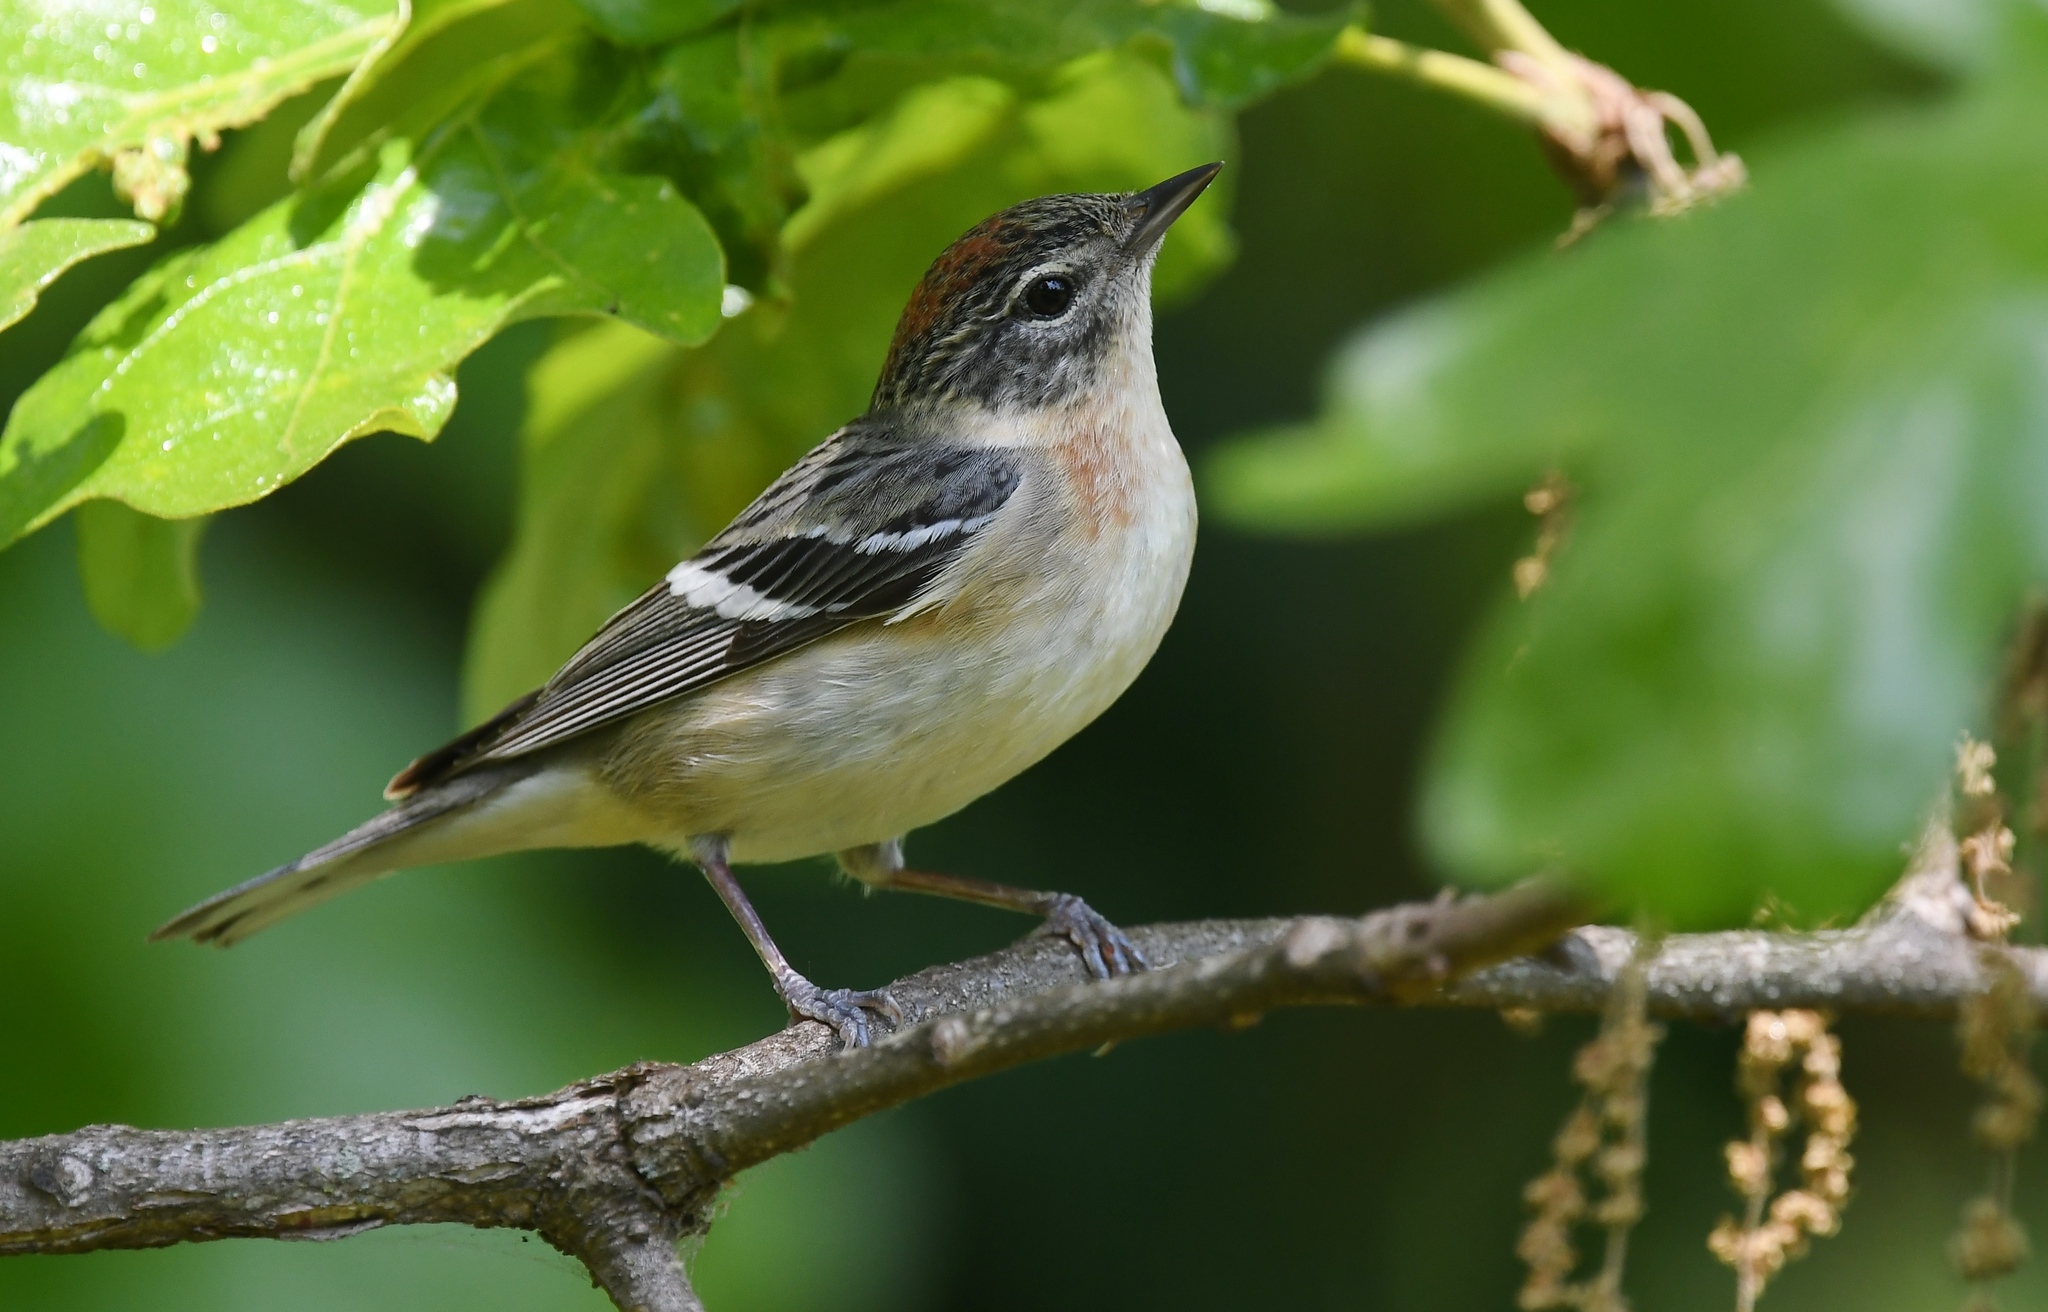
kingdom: Animalia
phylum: Chordata
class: Aves
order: Passeriformes
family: Parulidae
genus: Setophaga
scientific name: Setophaga castanea
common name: Bay-breasted warbler
